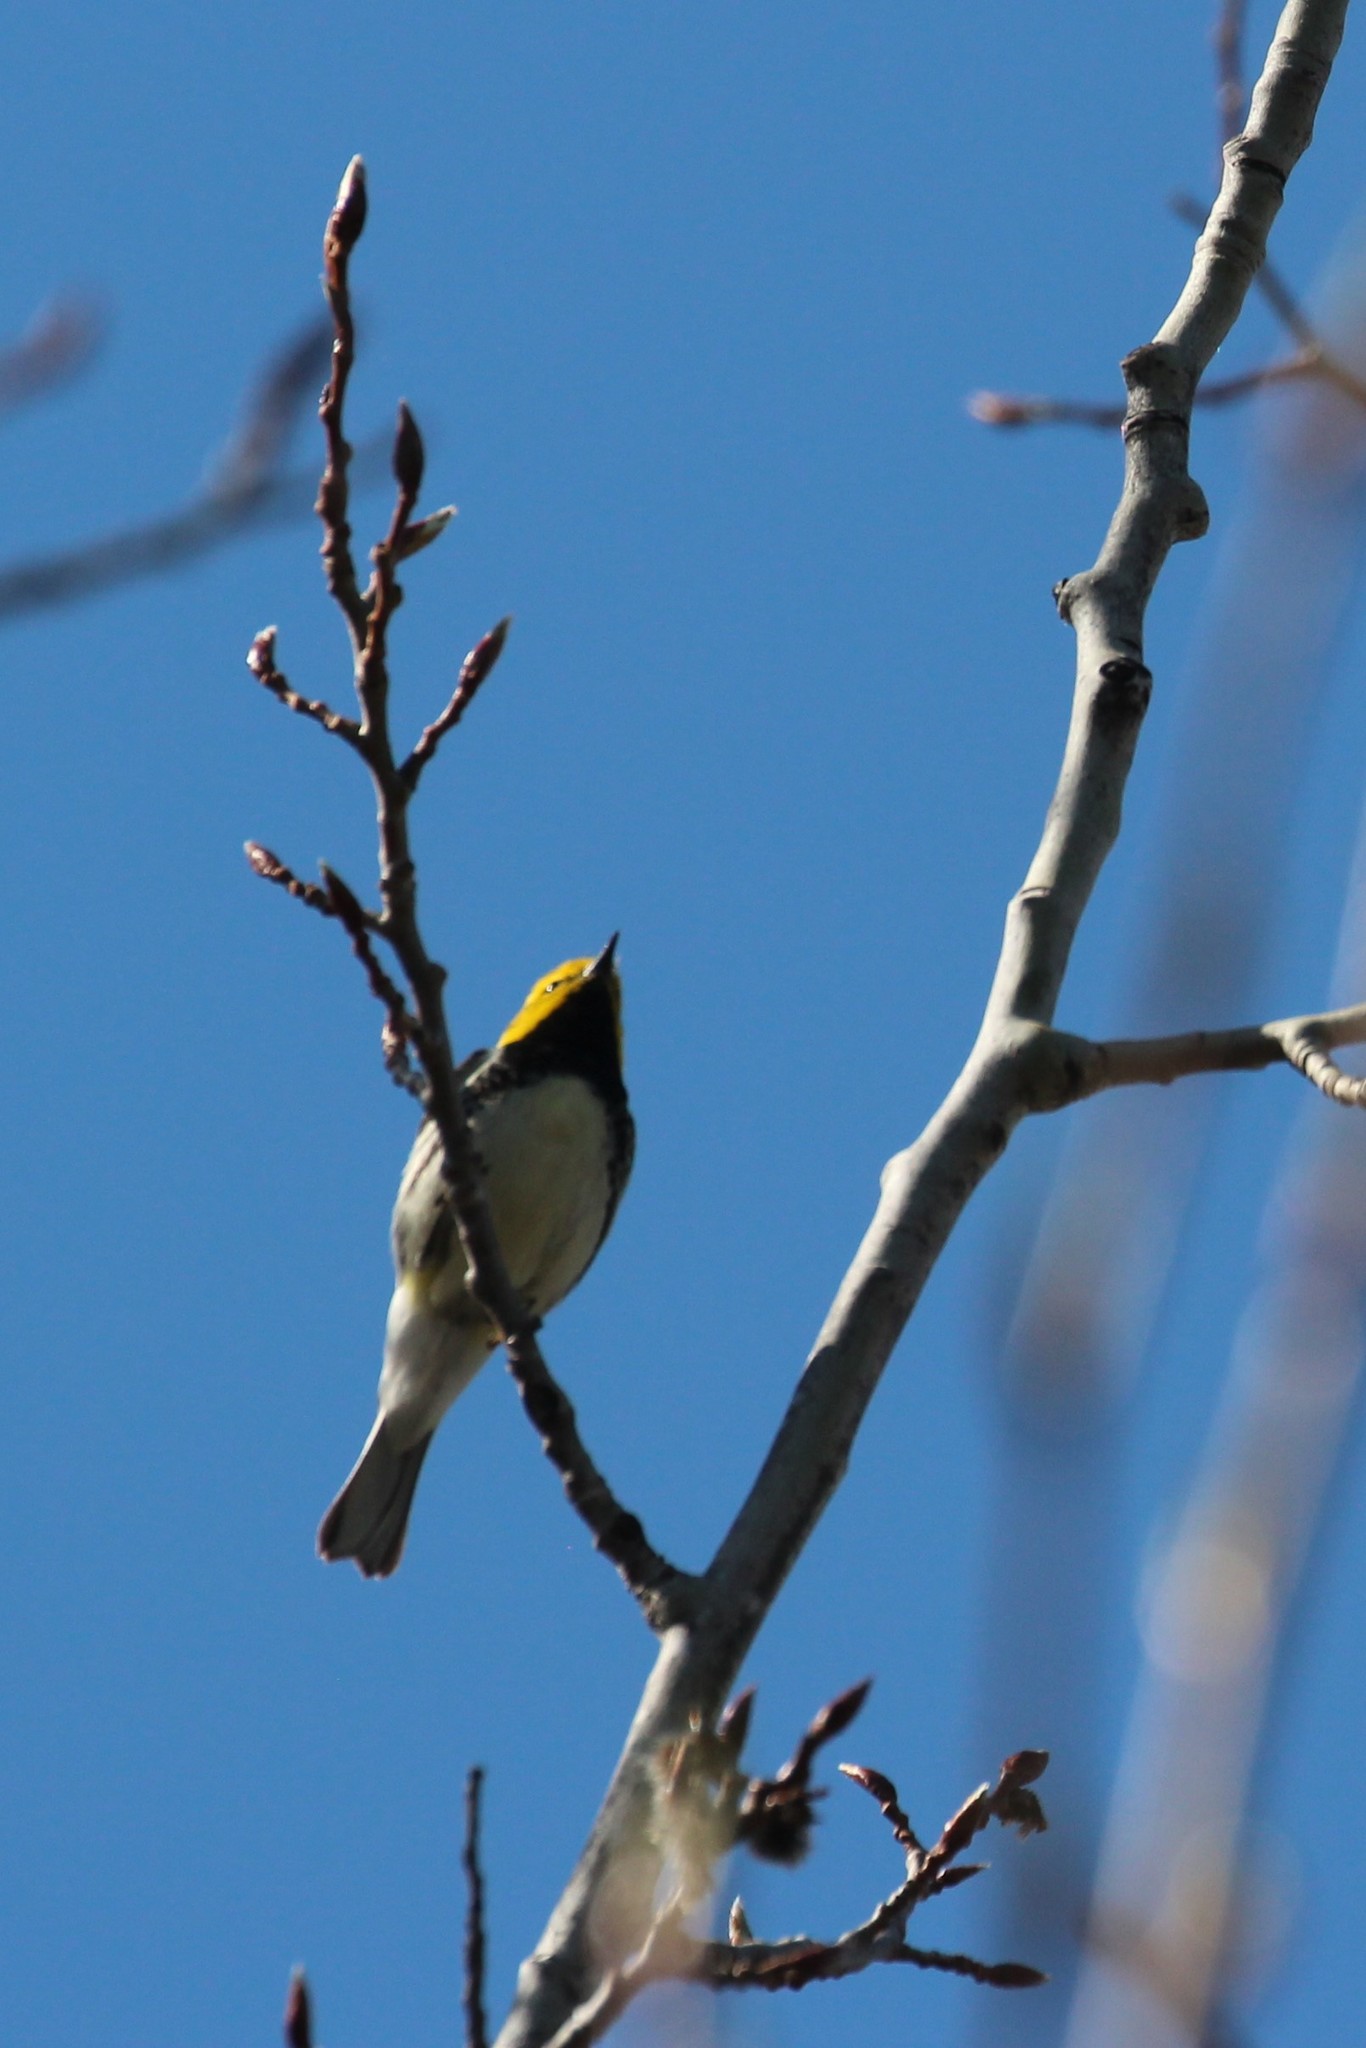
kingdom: Animalia
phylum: Chordata
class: Aves
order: Passeriformes
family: Parulidae
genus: Setophaga
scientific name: Setophaga virens
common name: Black-throated green warbler
